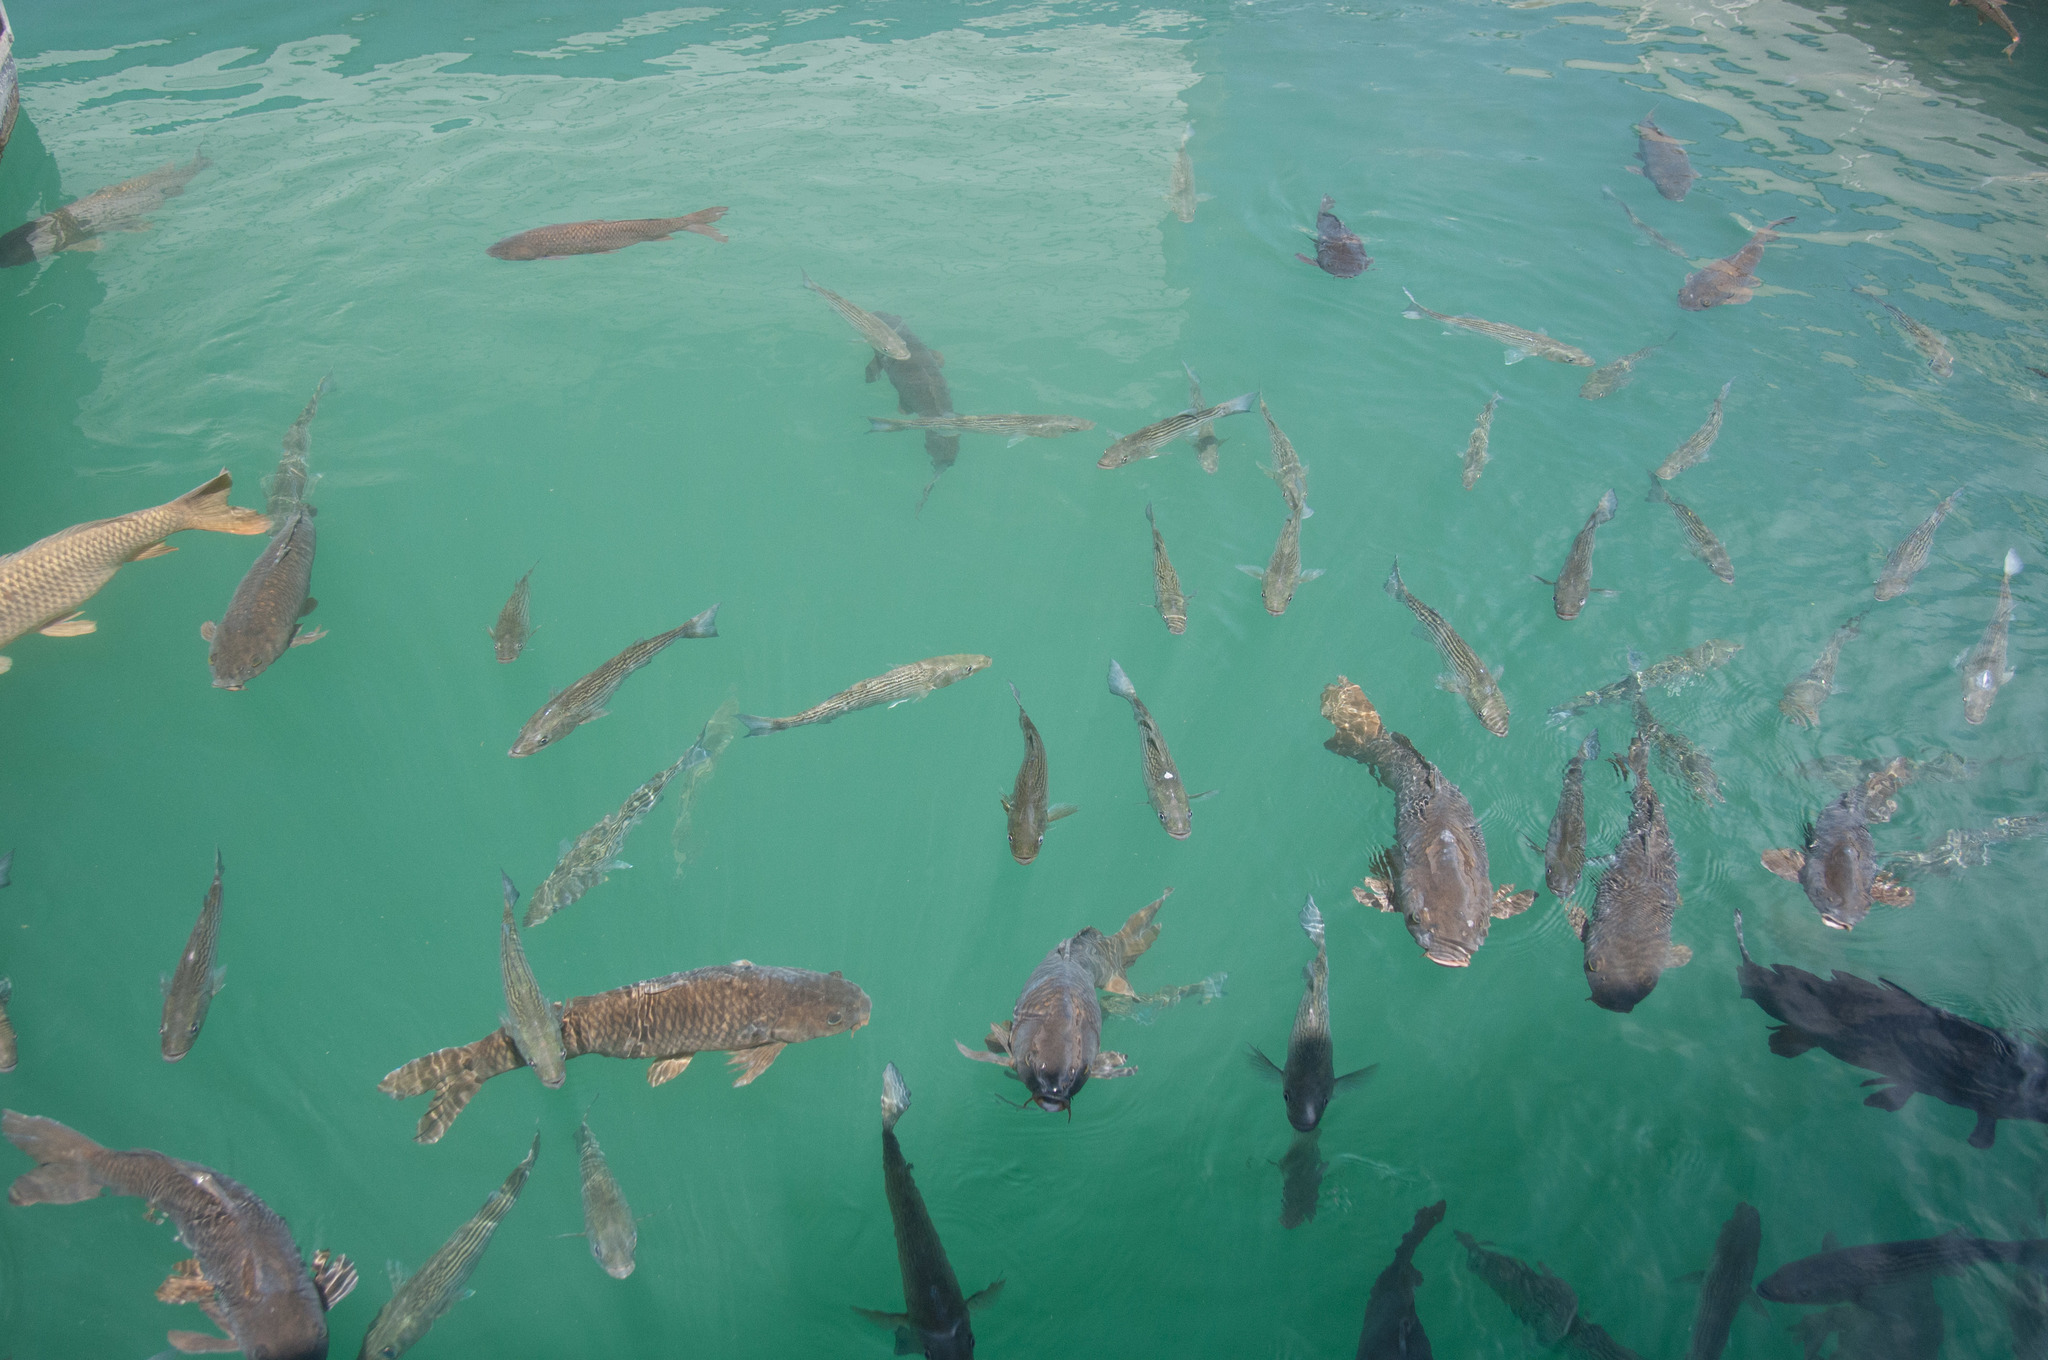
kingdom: Animalia
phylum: Chordata
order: Cypriniformes
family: Cyprinidae
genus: Cyprinus
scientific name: Cyprinus carpio
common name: Common carp
